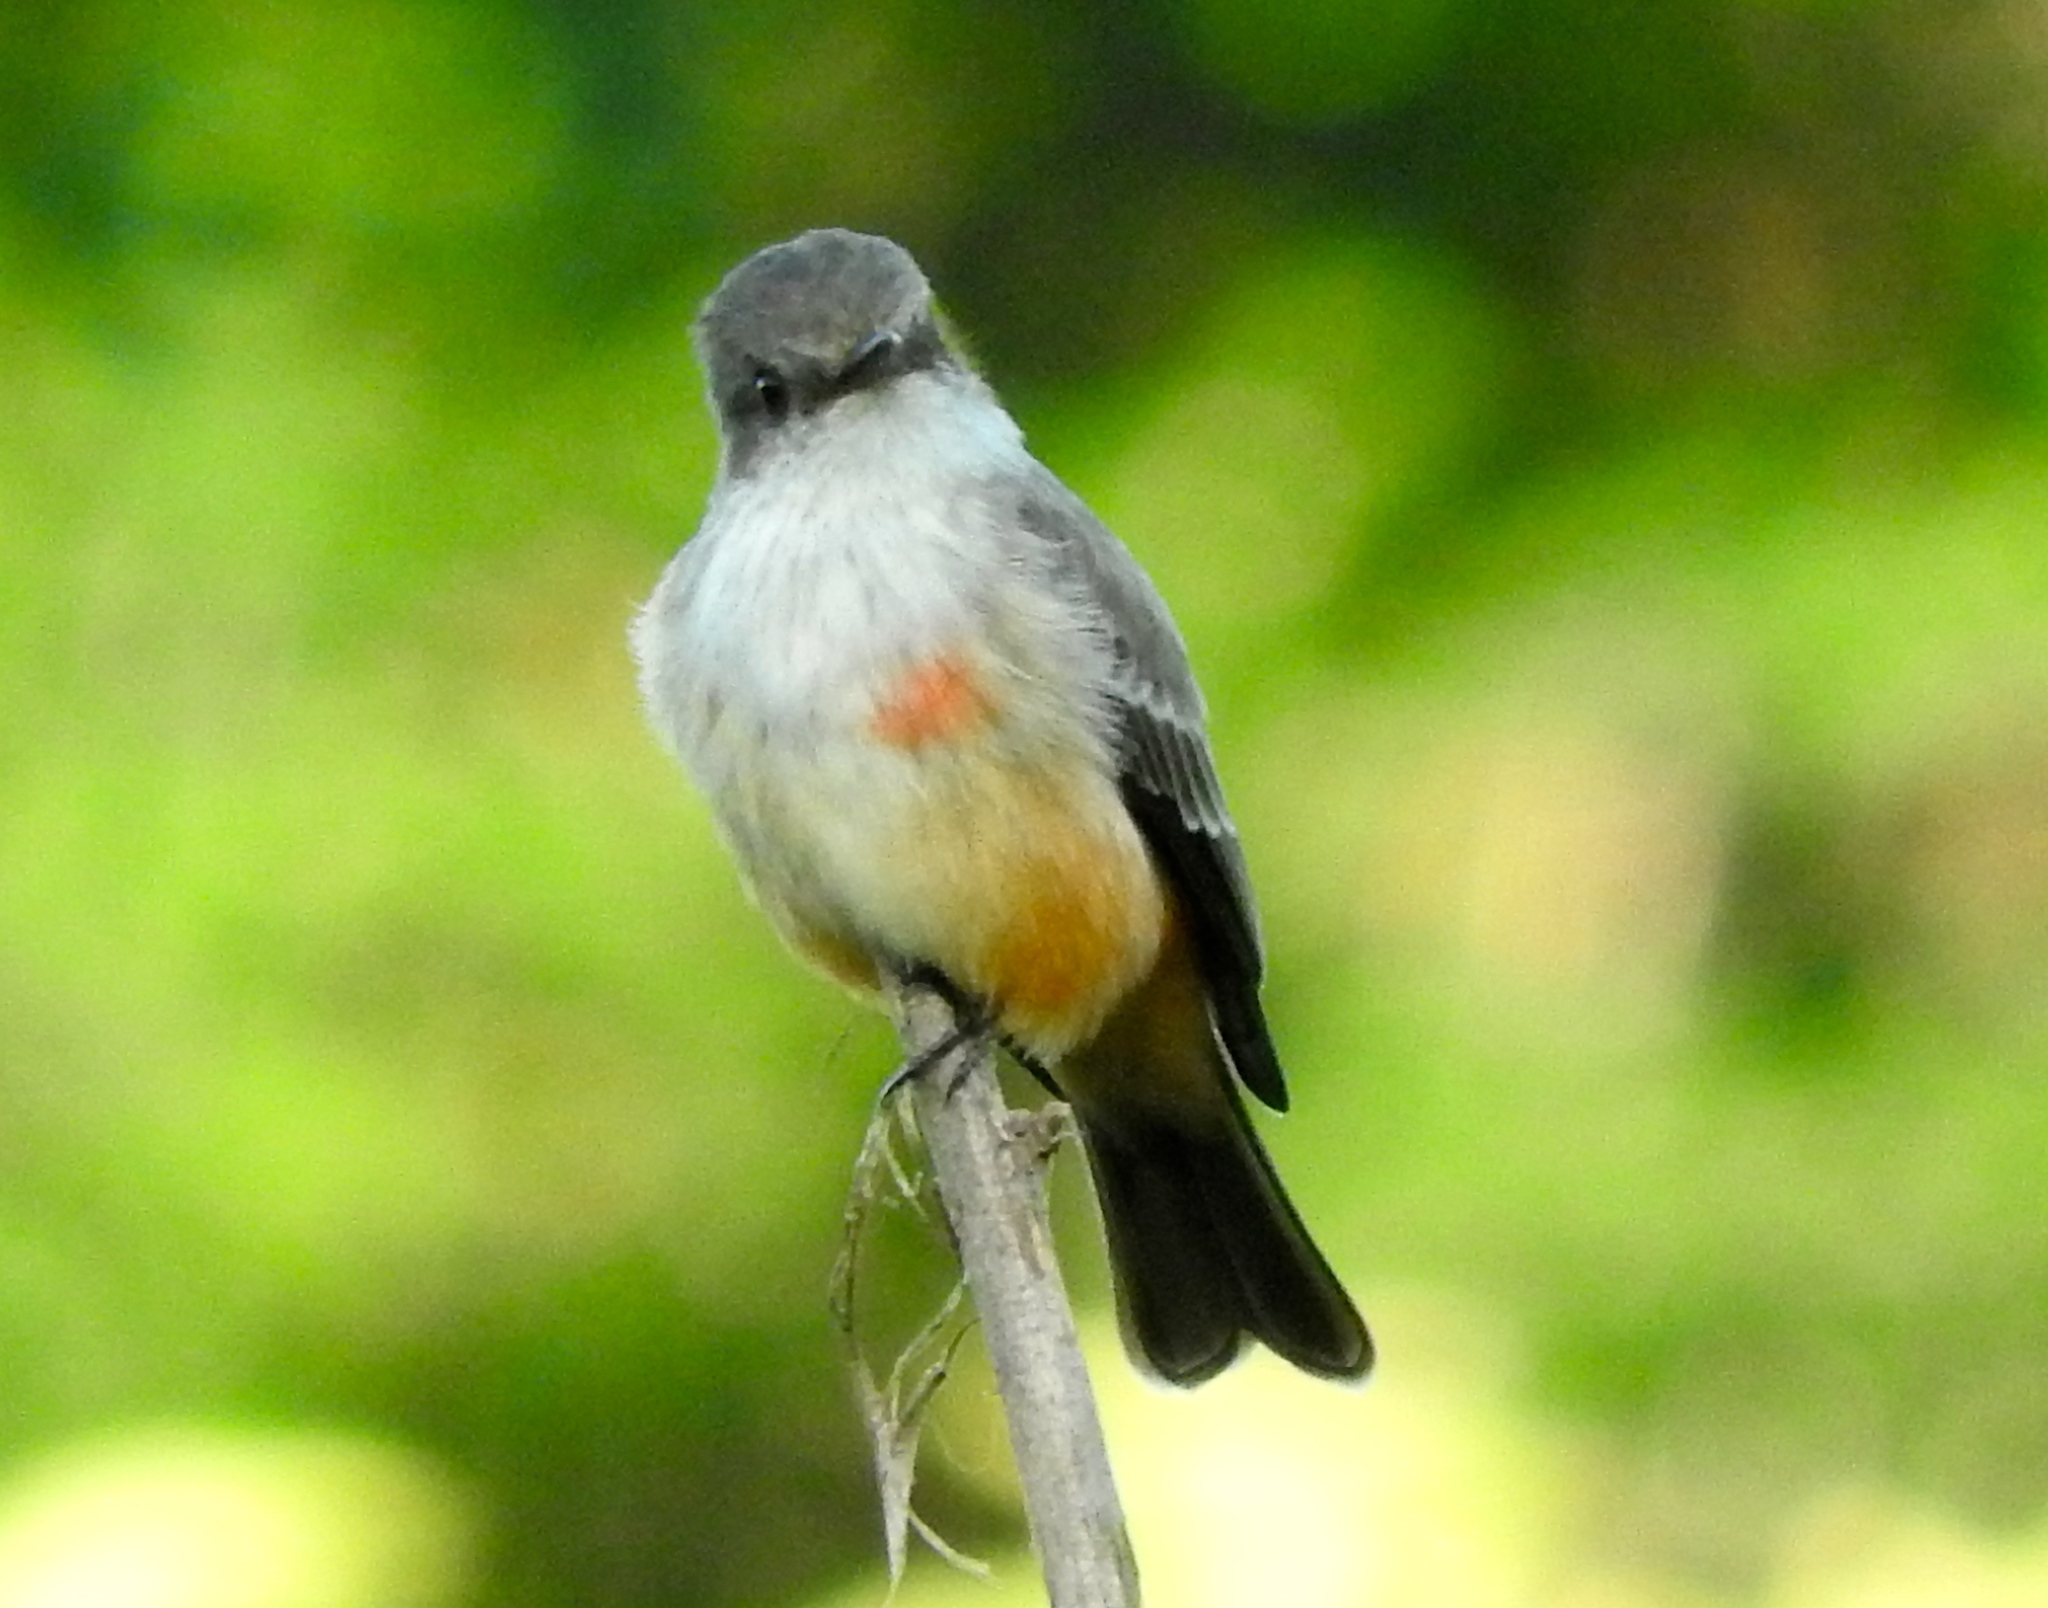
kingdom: Animalia
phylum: Chordata
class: Aves
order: Passeriformes
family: Tyrannidae
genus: Pyrocephalus
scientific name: Pyrocephalus rubinus
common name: Vermilion flycatcher
